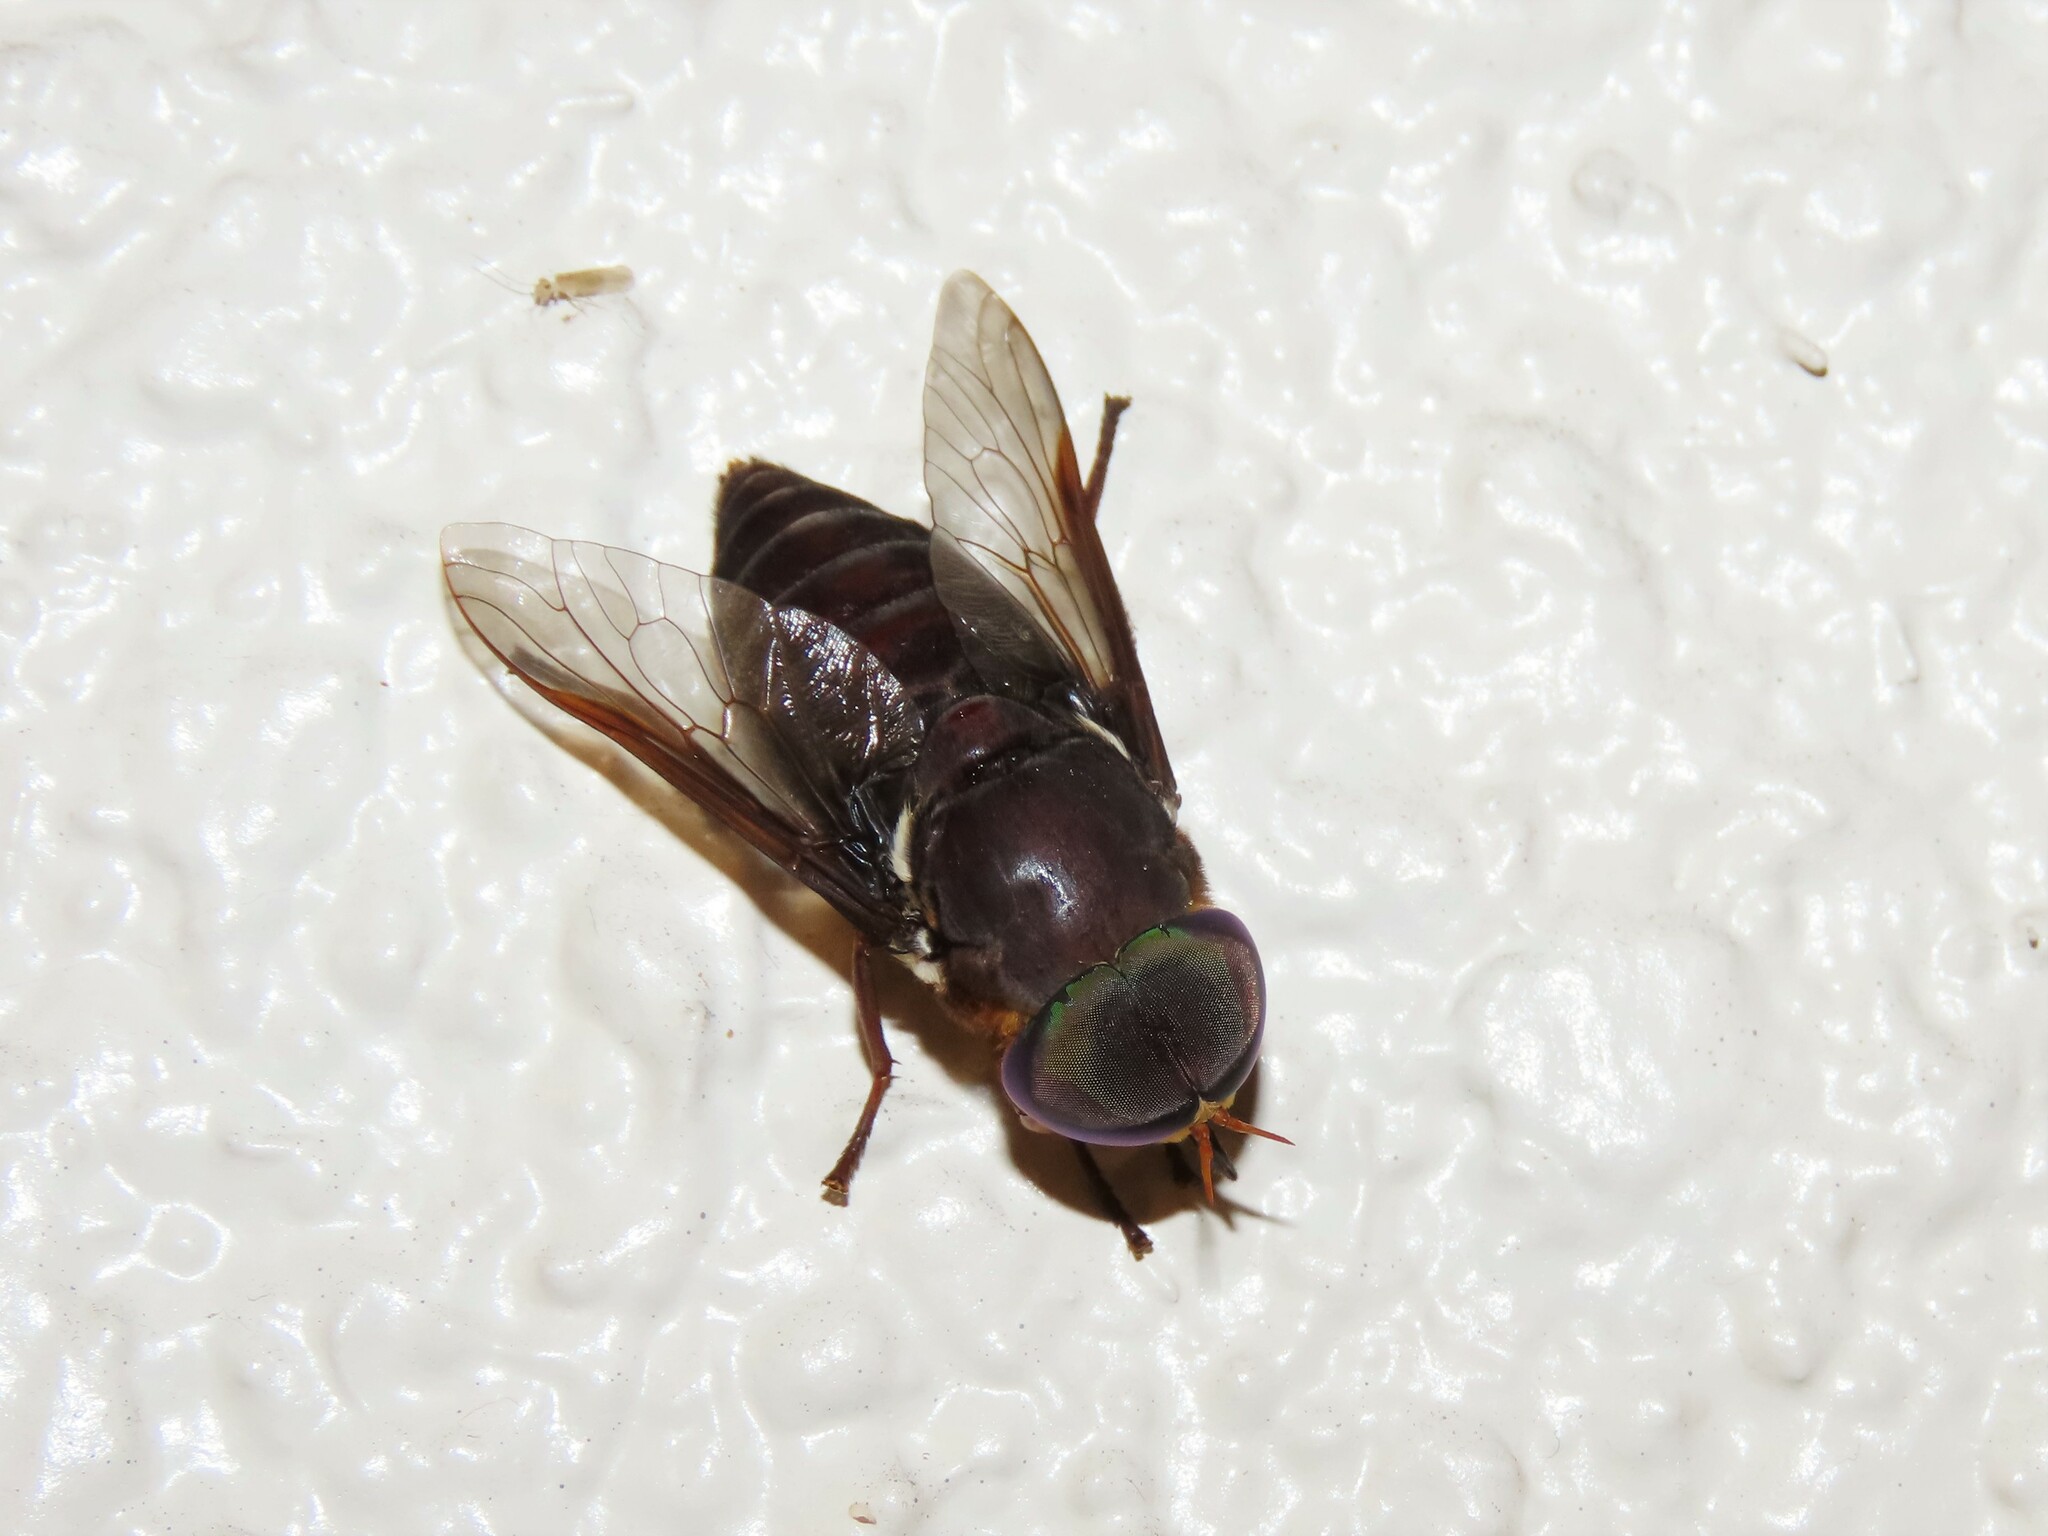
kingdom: Animalia
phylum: Arthropoda
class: Insecta
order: Diptera
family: Tabanidae
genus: Tabanus
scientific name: Tabanus americanus
